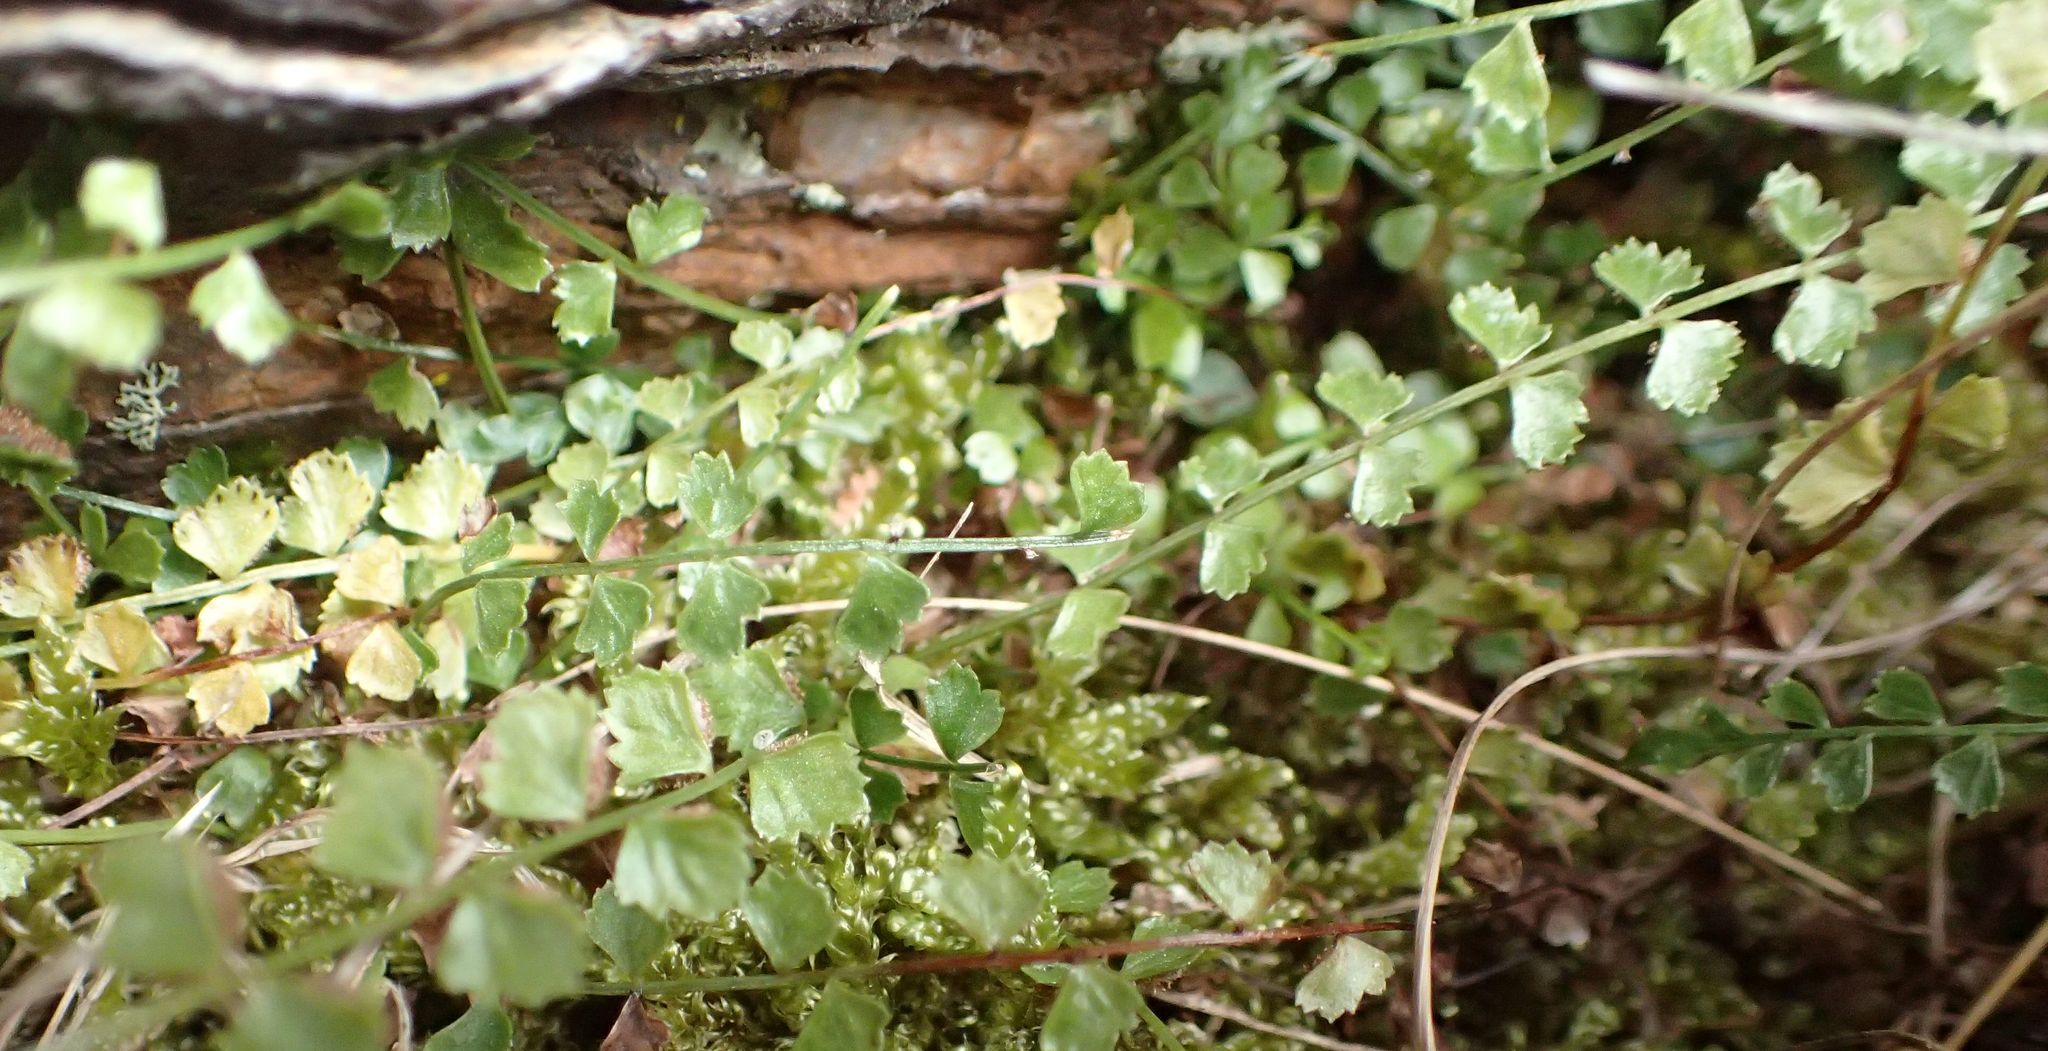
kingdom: Plantae
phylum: Tracheophyta
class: Polypodiopsida
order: Polypodiales
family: Aspleniaceae
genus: Asplenium
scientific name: Asplenium flabellifolium
